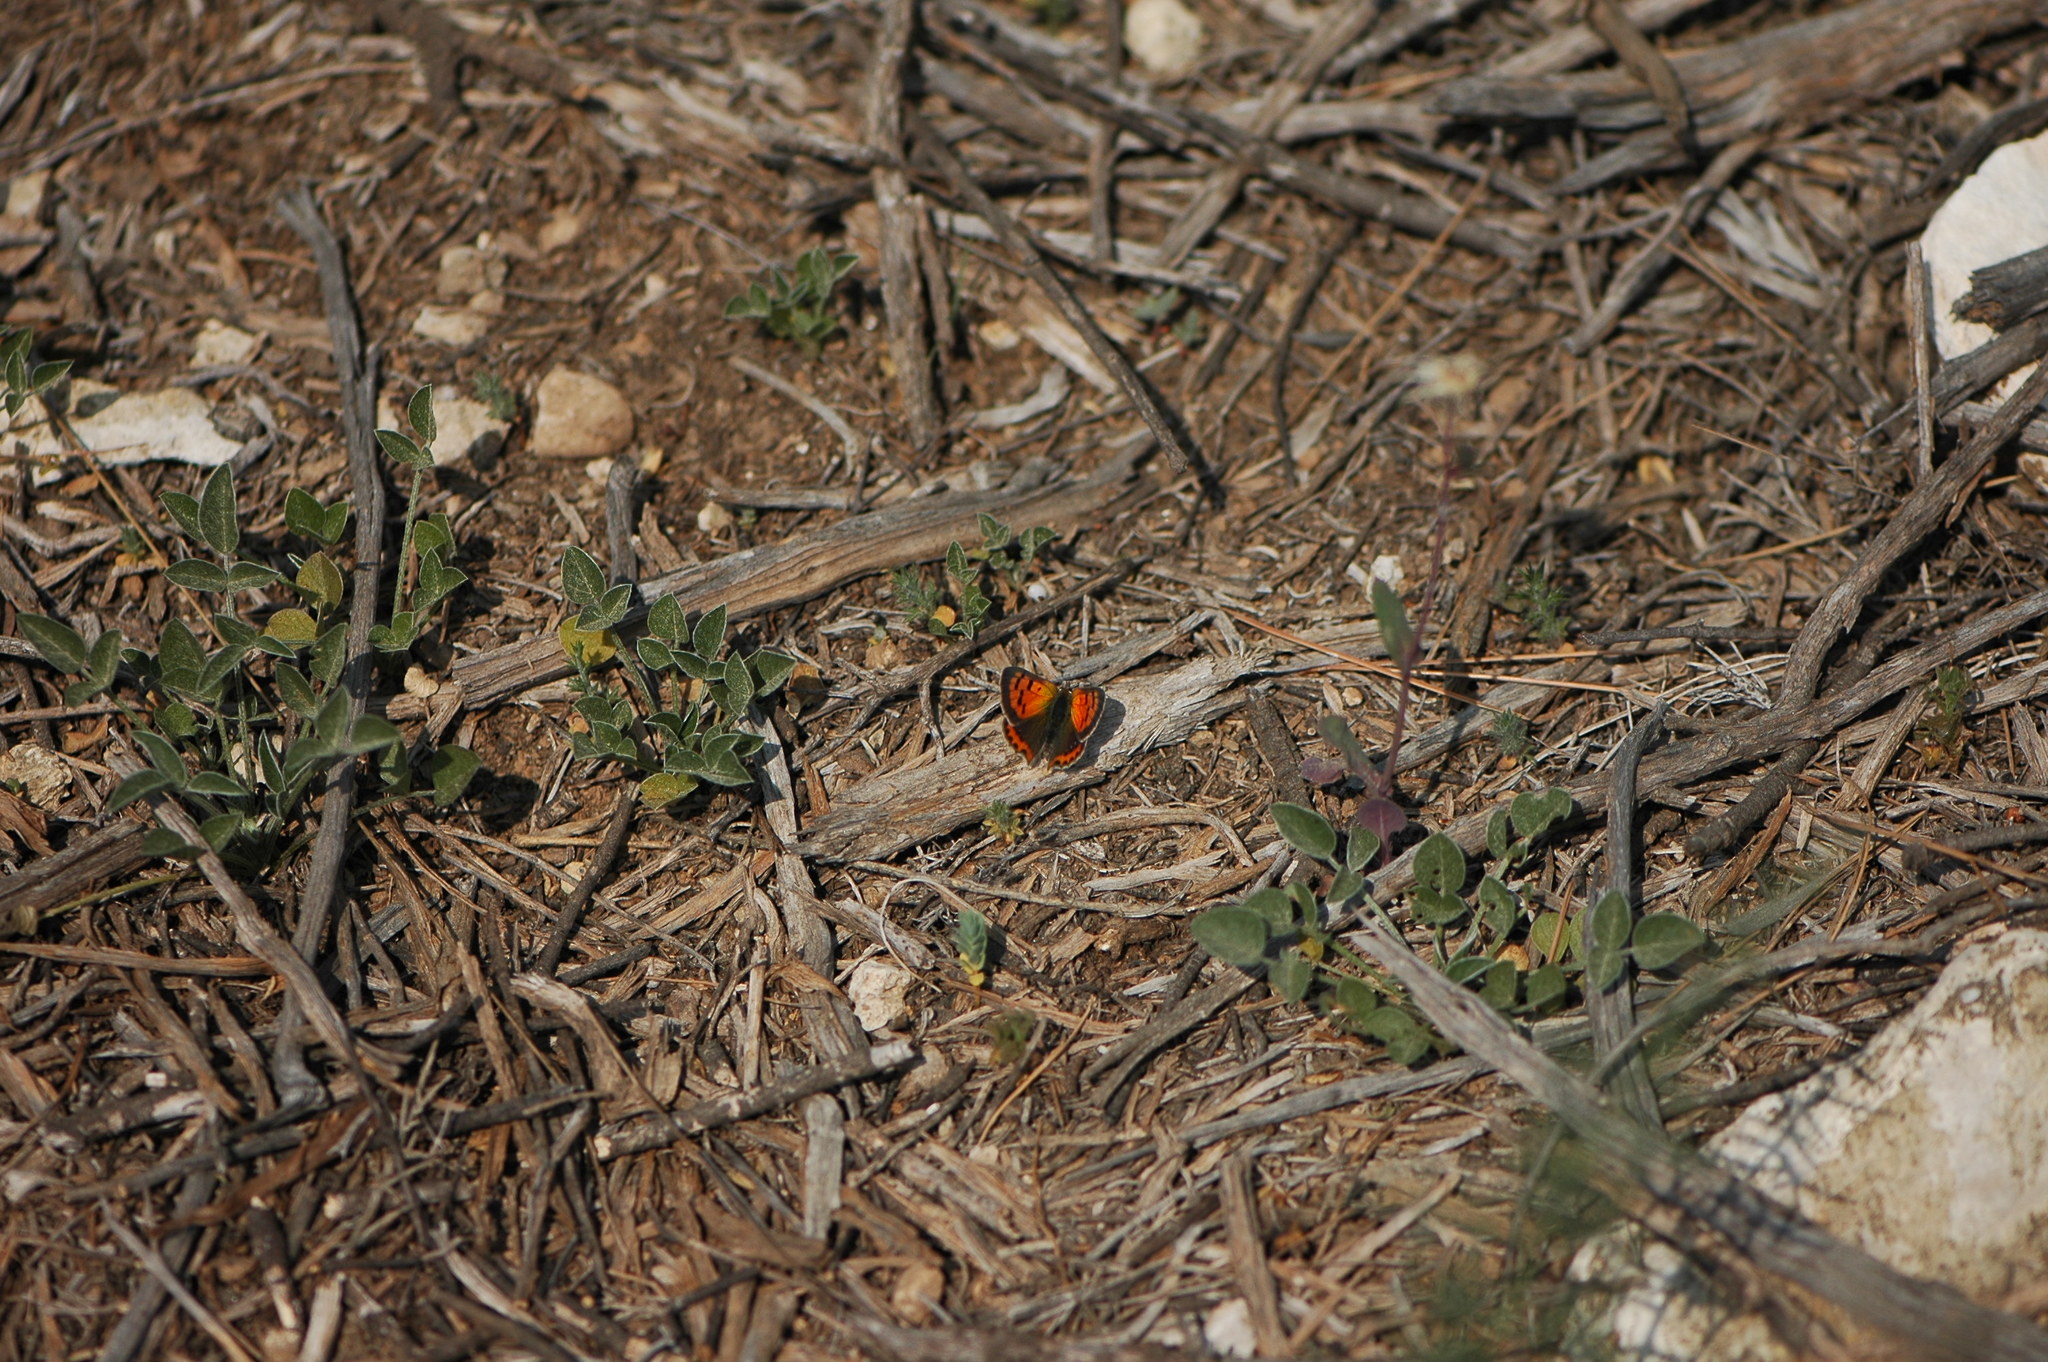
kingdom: Animalia
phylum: Arthropoda
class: Insecta
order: Lepidoptera
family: Lycaenidae
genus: Lycaena
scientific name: Lycaena phlaeas
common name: Small copper
